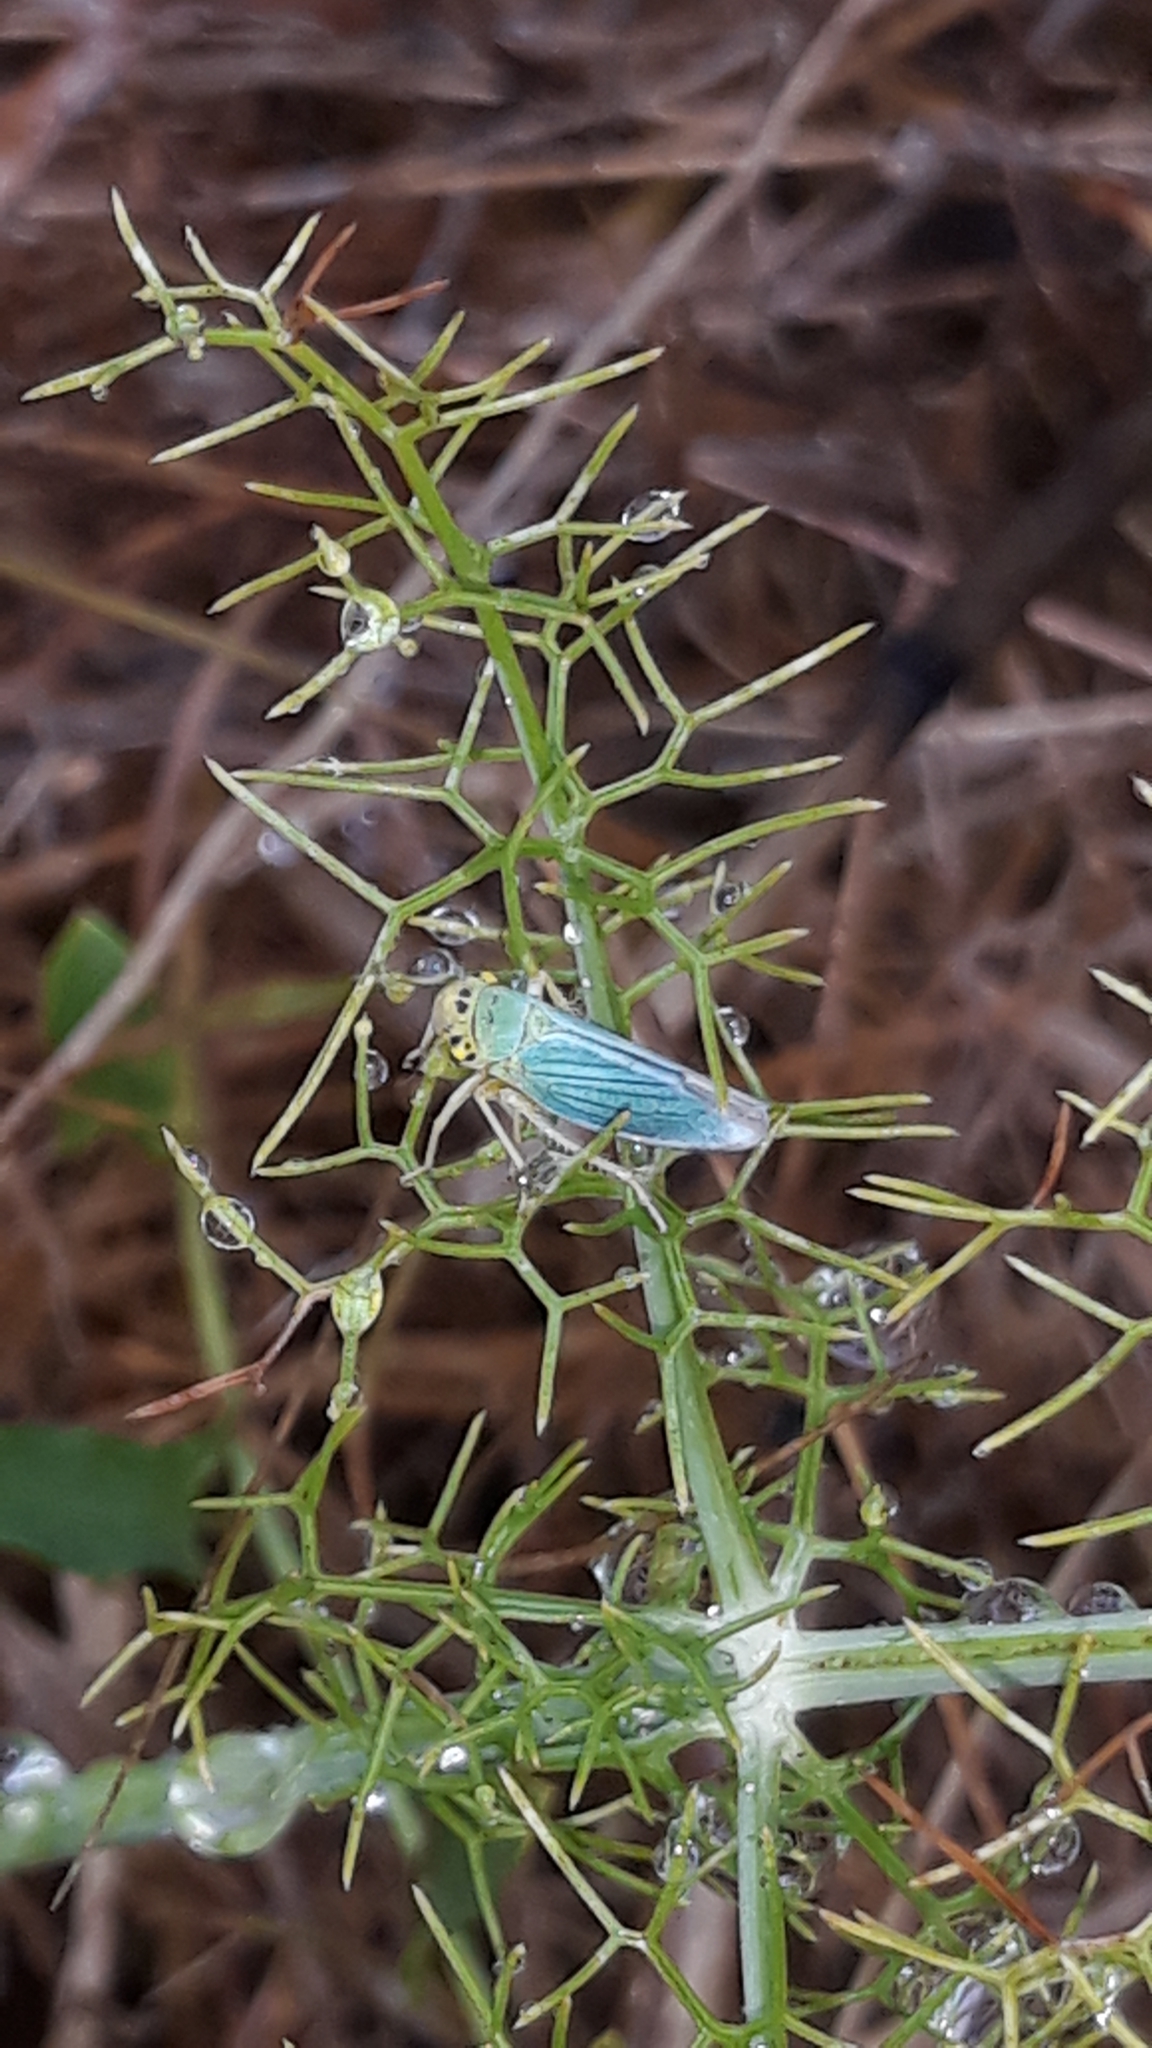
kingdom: Animalia
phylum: Arthropoda
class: Insecta
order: Hemiptera
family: Cicadellidae
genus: Cicadella
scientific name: Cicadella viridis
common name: Leafhopper
